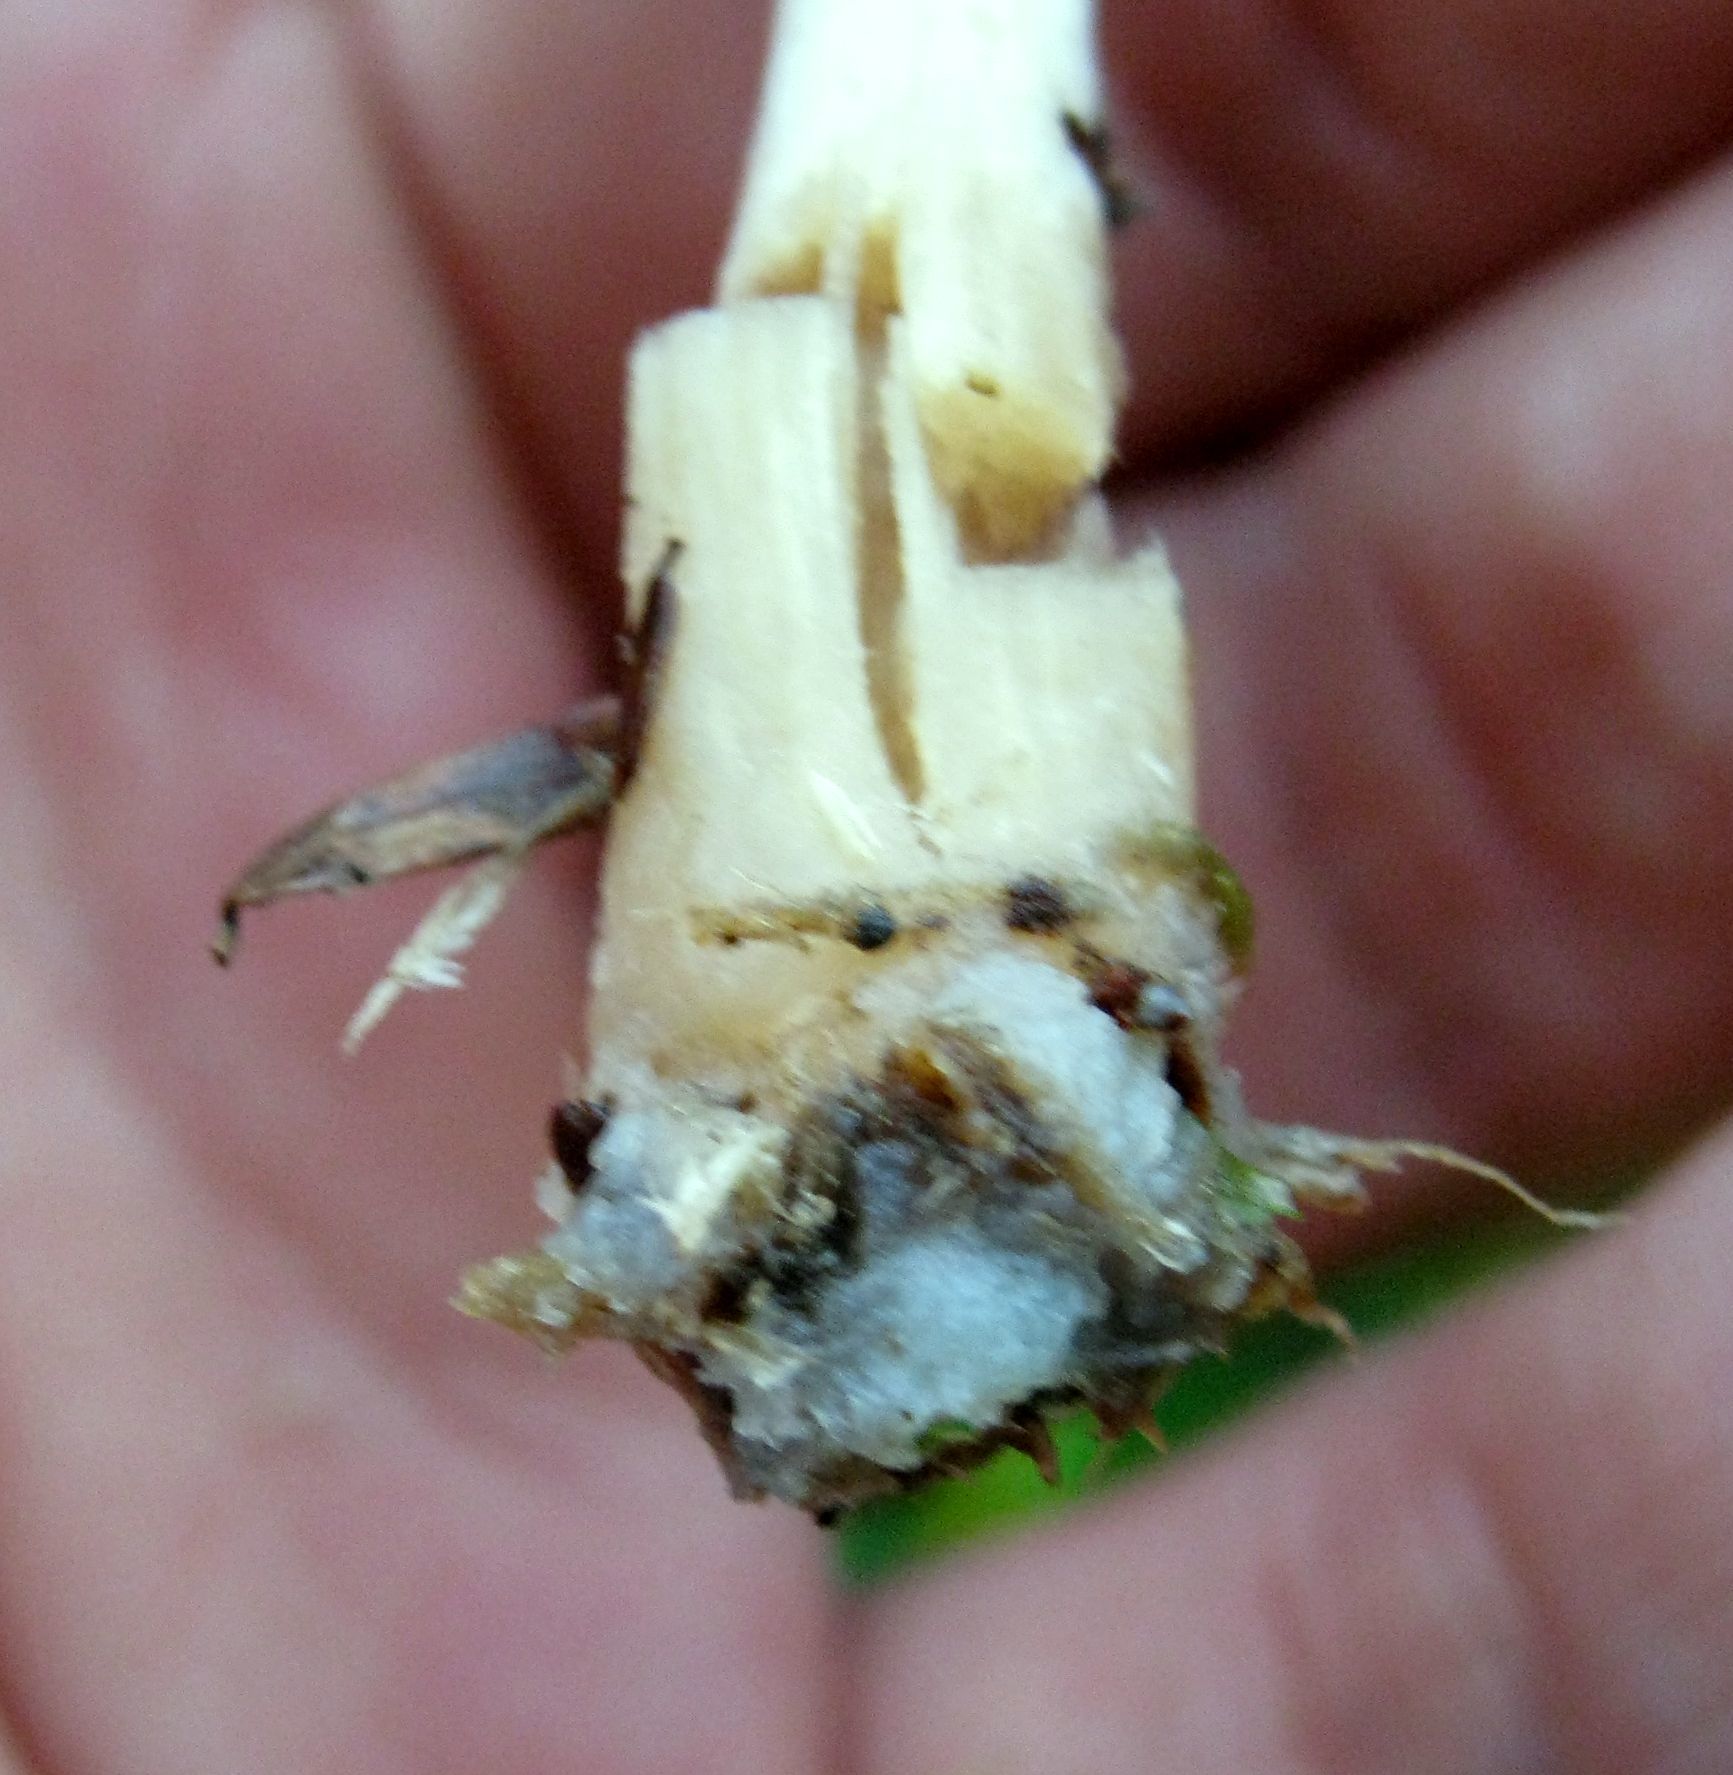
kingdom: Fungi
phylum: Basidiomycota
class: Agaricomycetes
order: Agaricales
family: Entolomataceae
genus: Entoloma
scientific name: Entoloma strictius
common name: Straight-stalked entoloma
